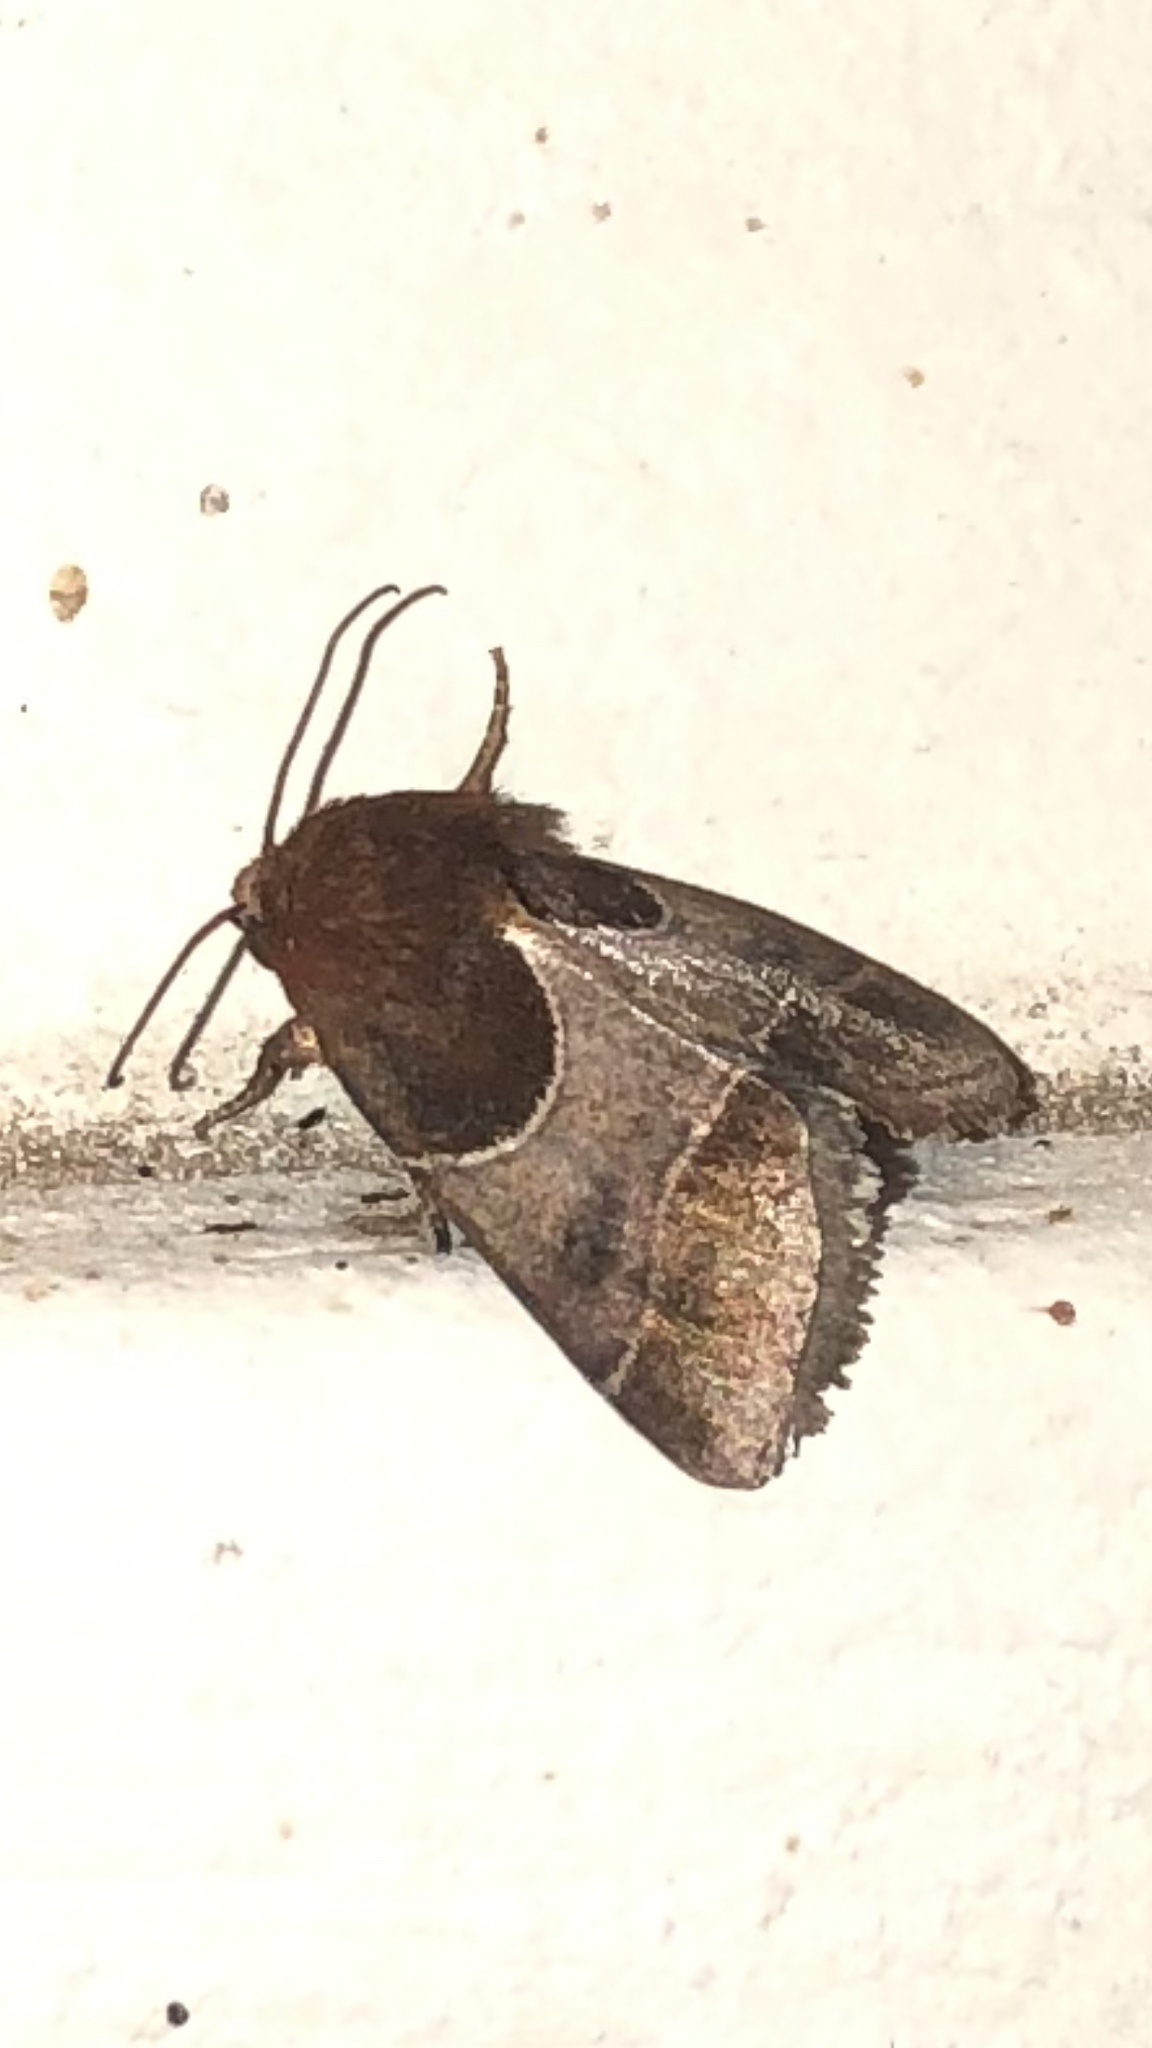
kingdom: Animalia
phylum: Arthropoda
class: Insecta
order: Lepidoptera
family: Noctuidae
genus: Schinia
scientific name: Schinia arcigera
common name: Arcigera flower moth
